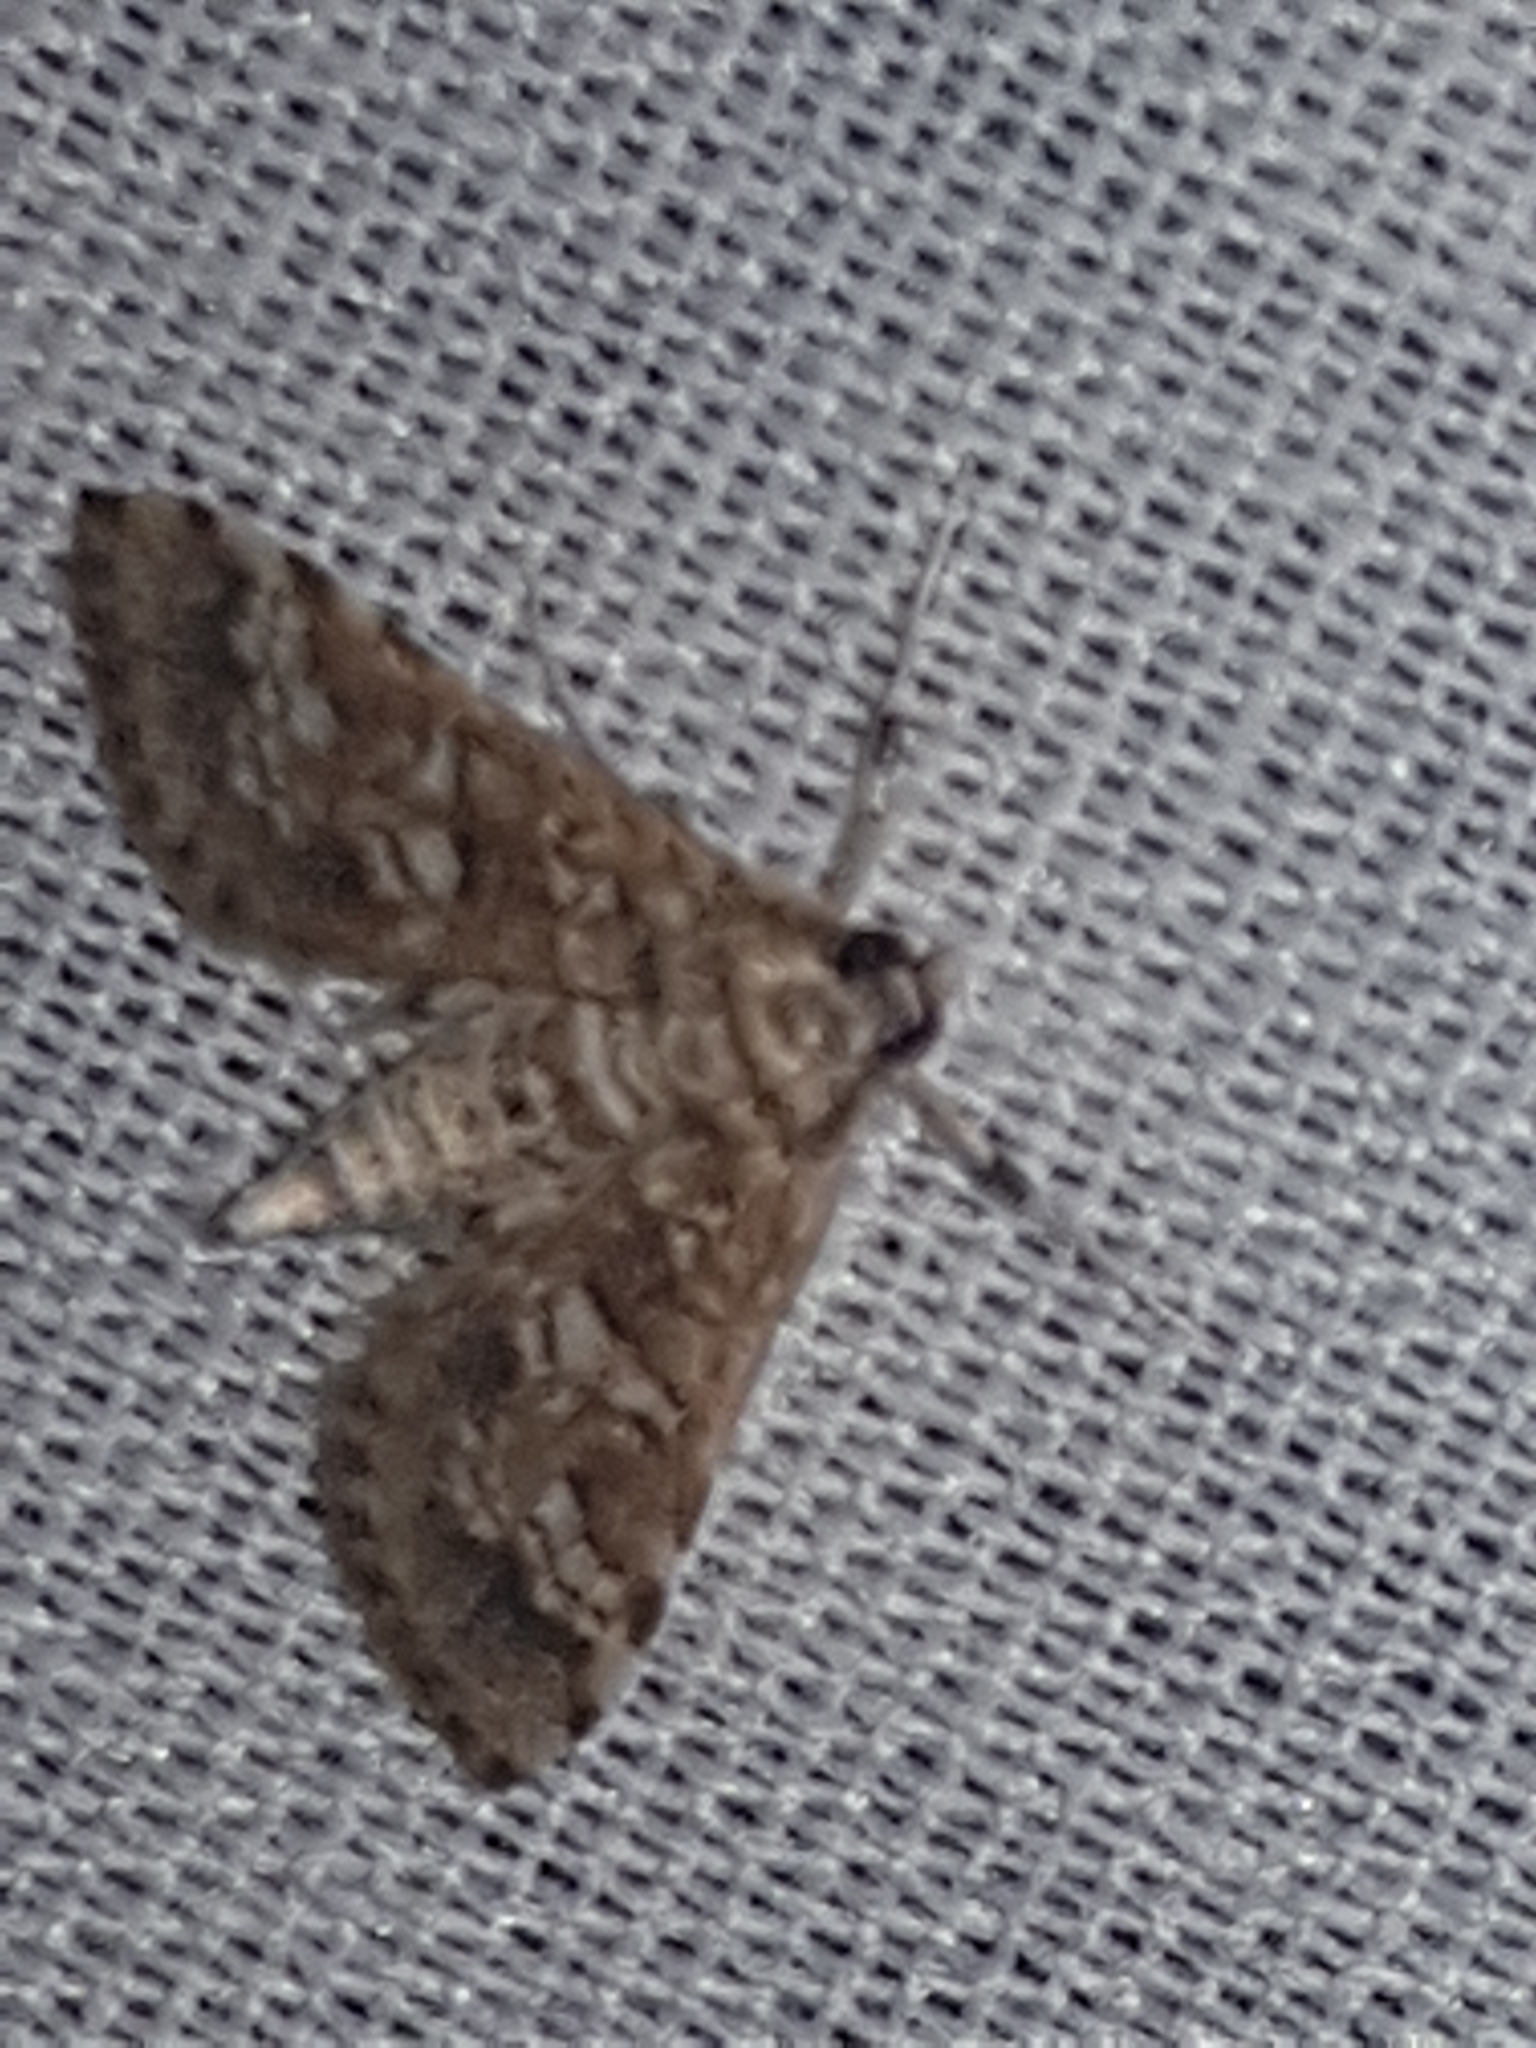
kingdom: Animalia
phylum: Arthropoda
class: Insecta
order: Lepidoptera
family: Crambidae
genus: Samea
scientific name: Samea multiplicalis
